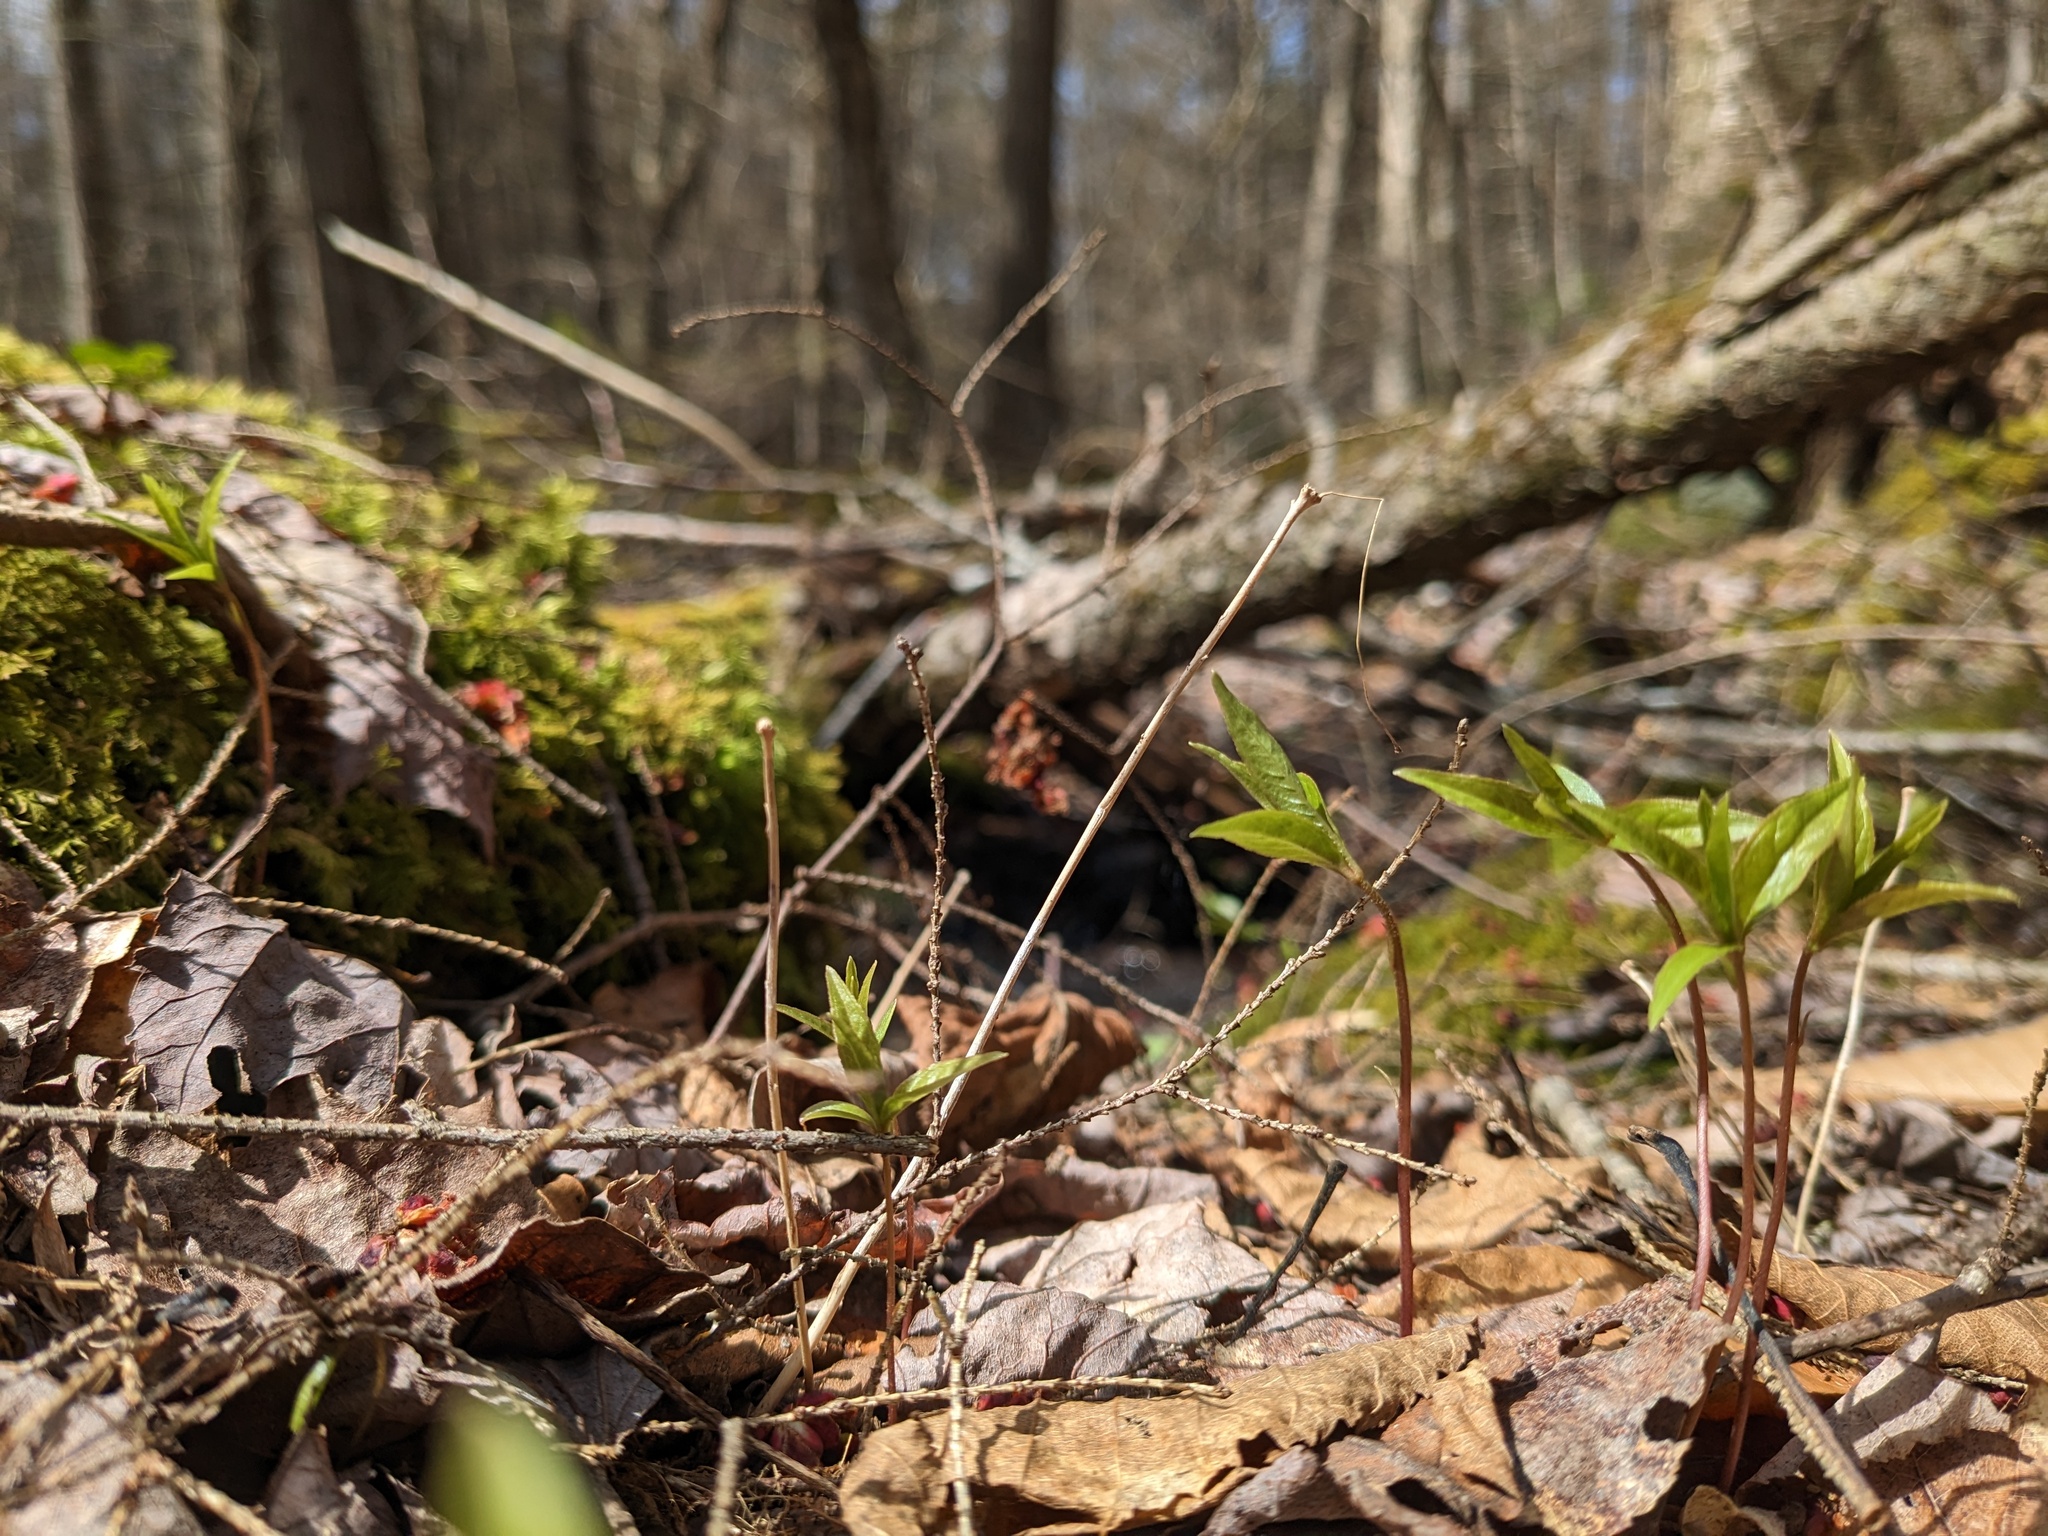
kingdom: Plantae
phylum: Tracheophyta
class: Magnoliopsida
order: Ericales
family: Primulaceae
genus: Lysimachia
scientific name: Lysimachia borealis
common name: American starflower
